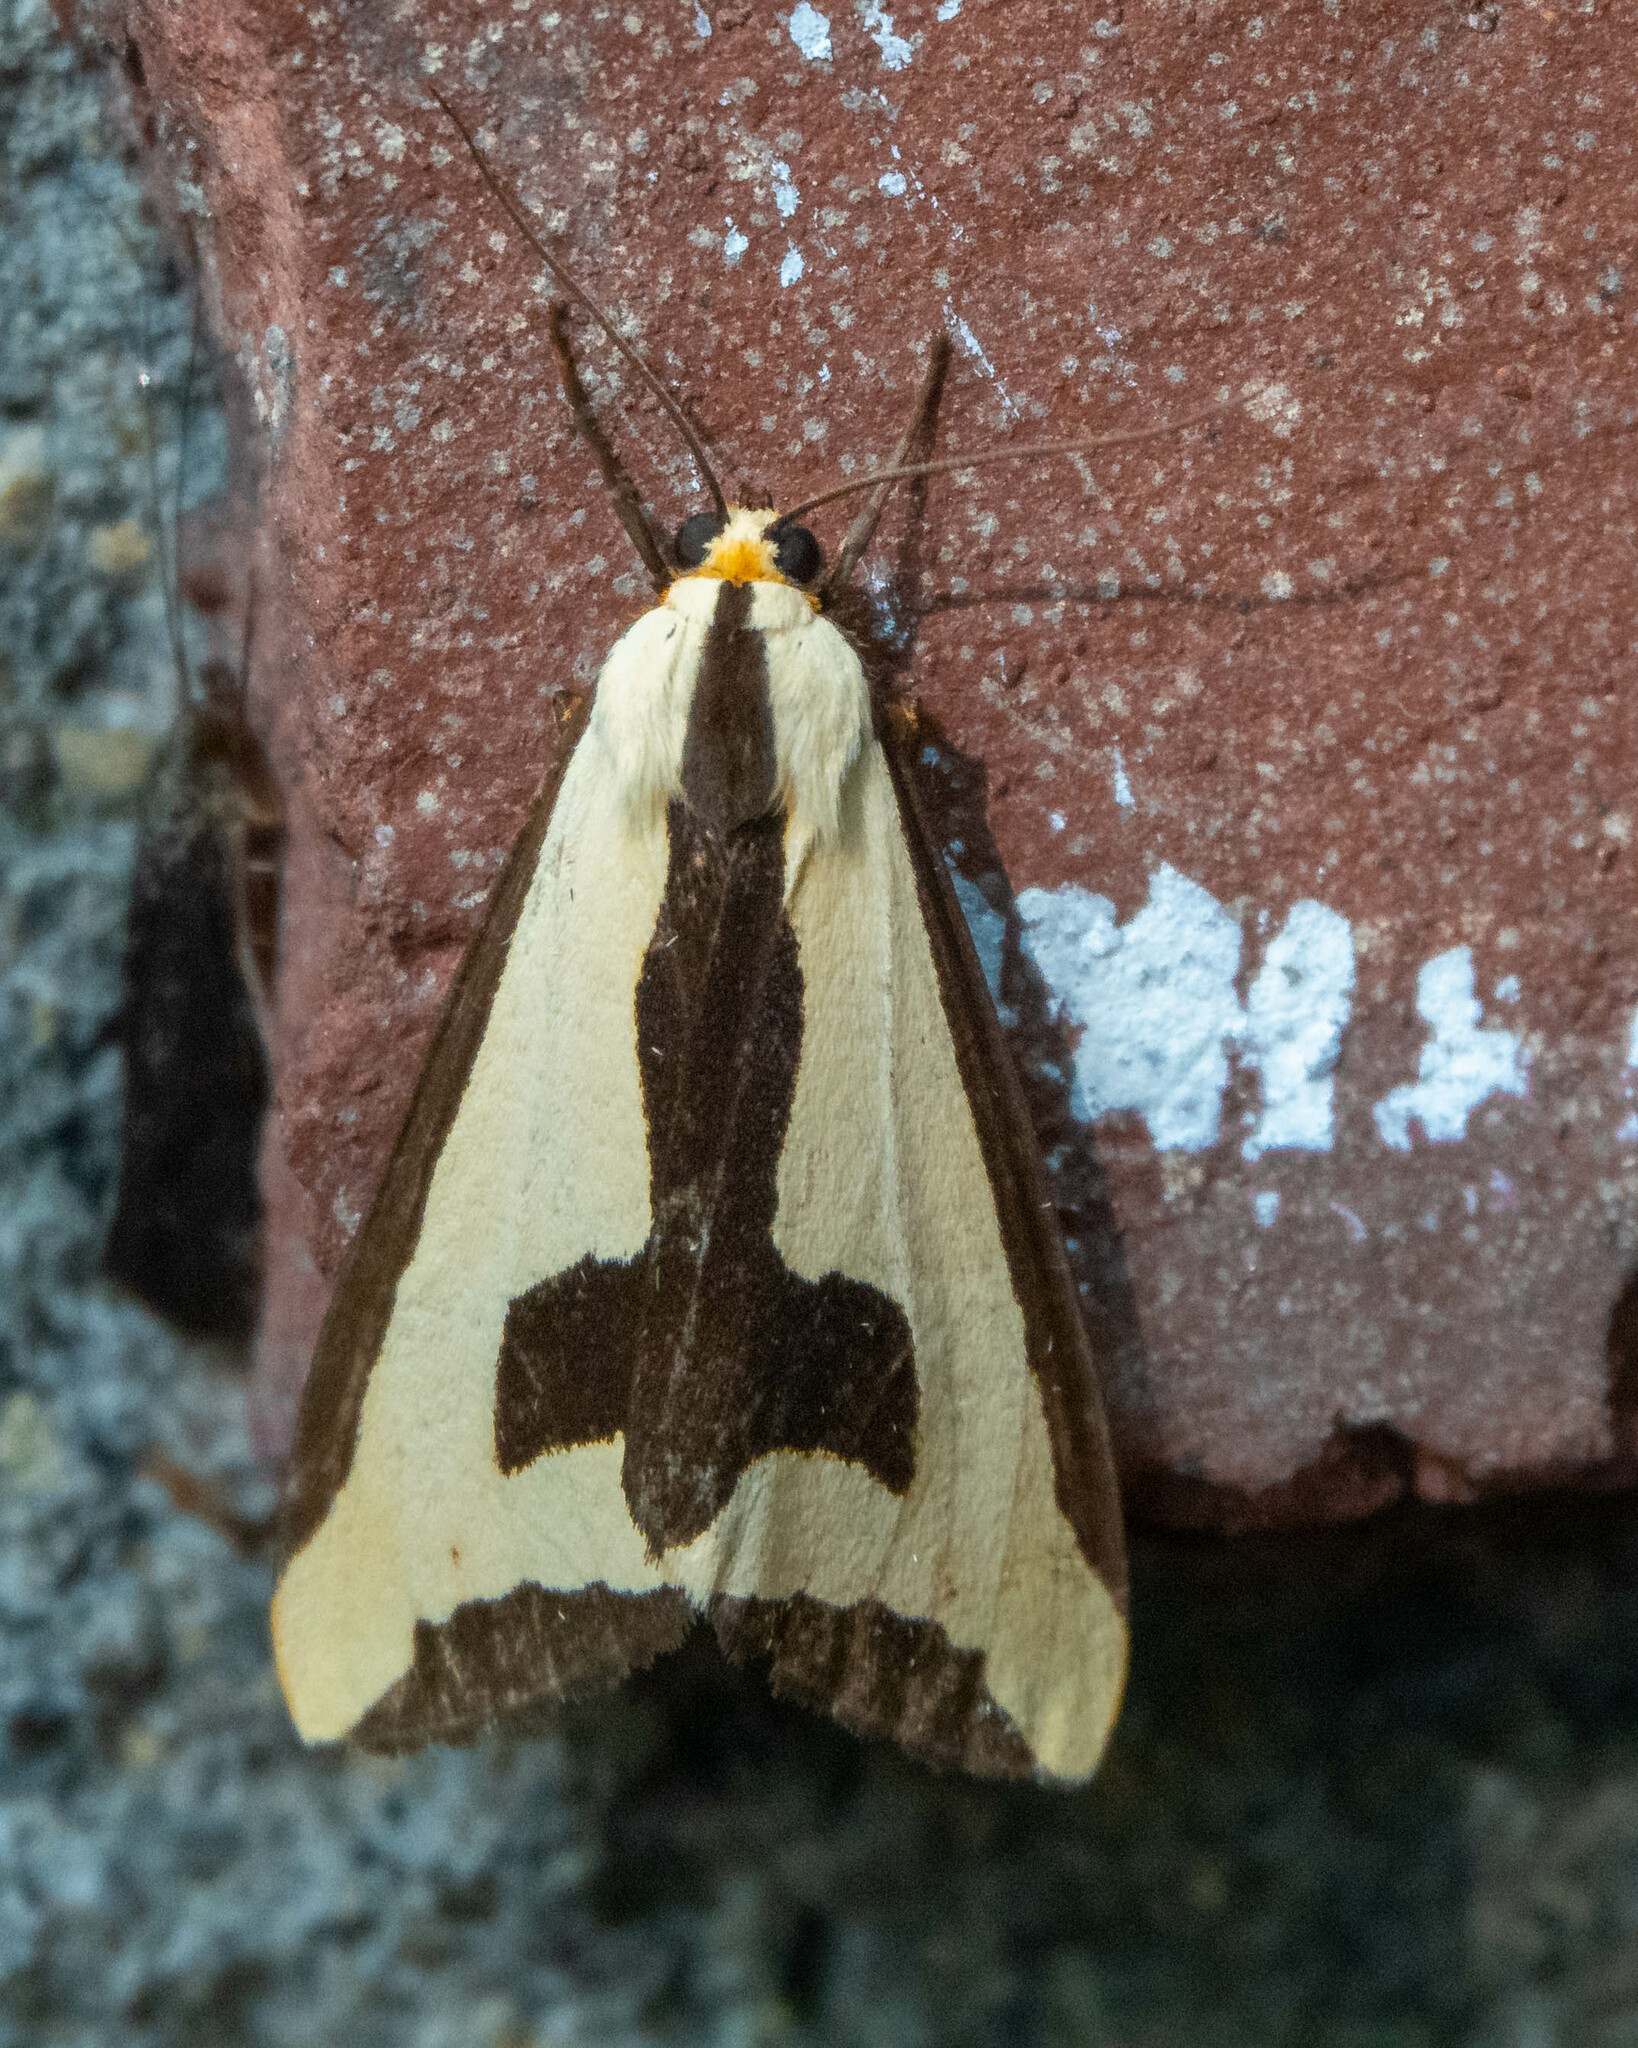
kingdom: Animalia
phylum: Arthropoda
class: Insecta
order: Lepidoptera
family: Erebidae
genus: Haploa
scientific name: Haploa clymene
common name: Clymene moth
